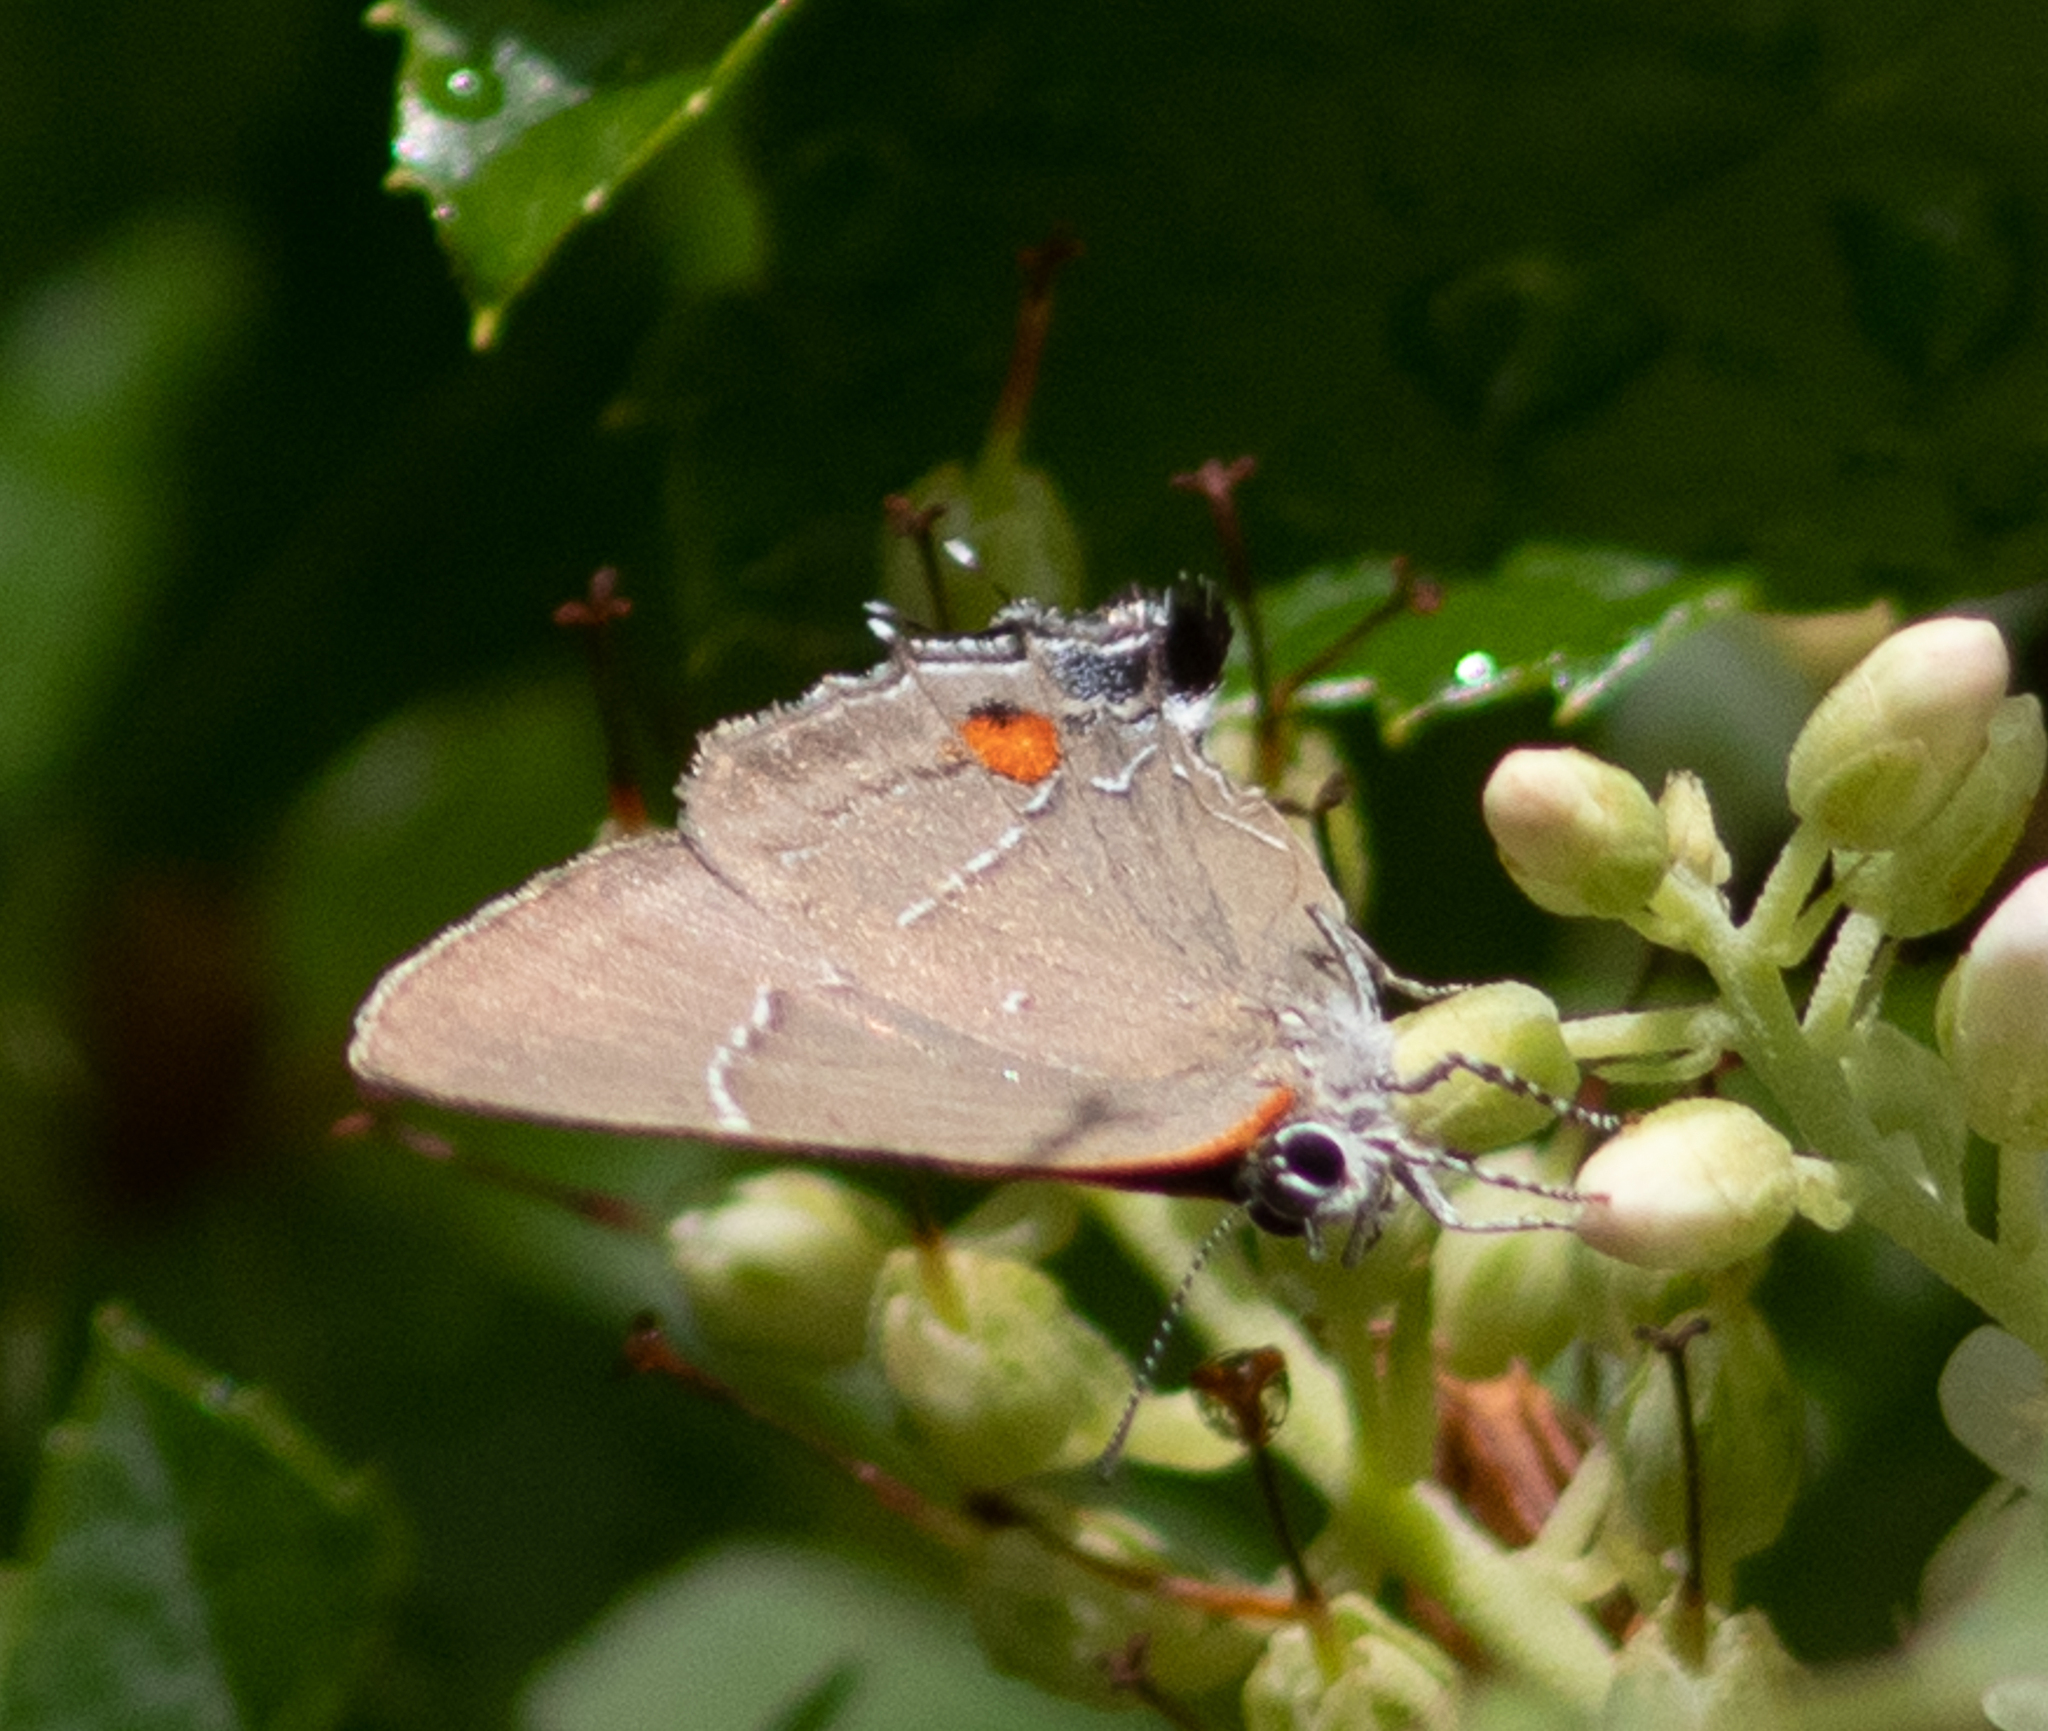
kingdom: Animalia
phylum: Arthropoda
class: Insecta
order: Lepidoptera
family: Lycaenidae
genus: Parrhasius
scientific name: Parrhasius m-album
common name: White m hairstreak
